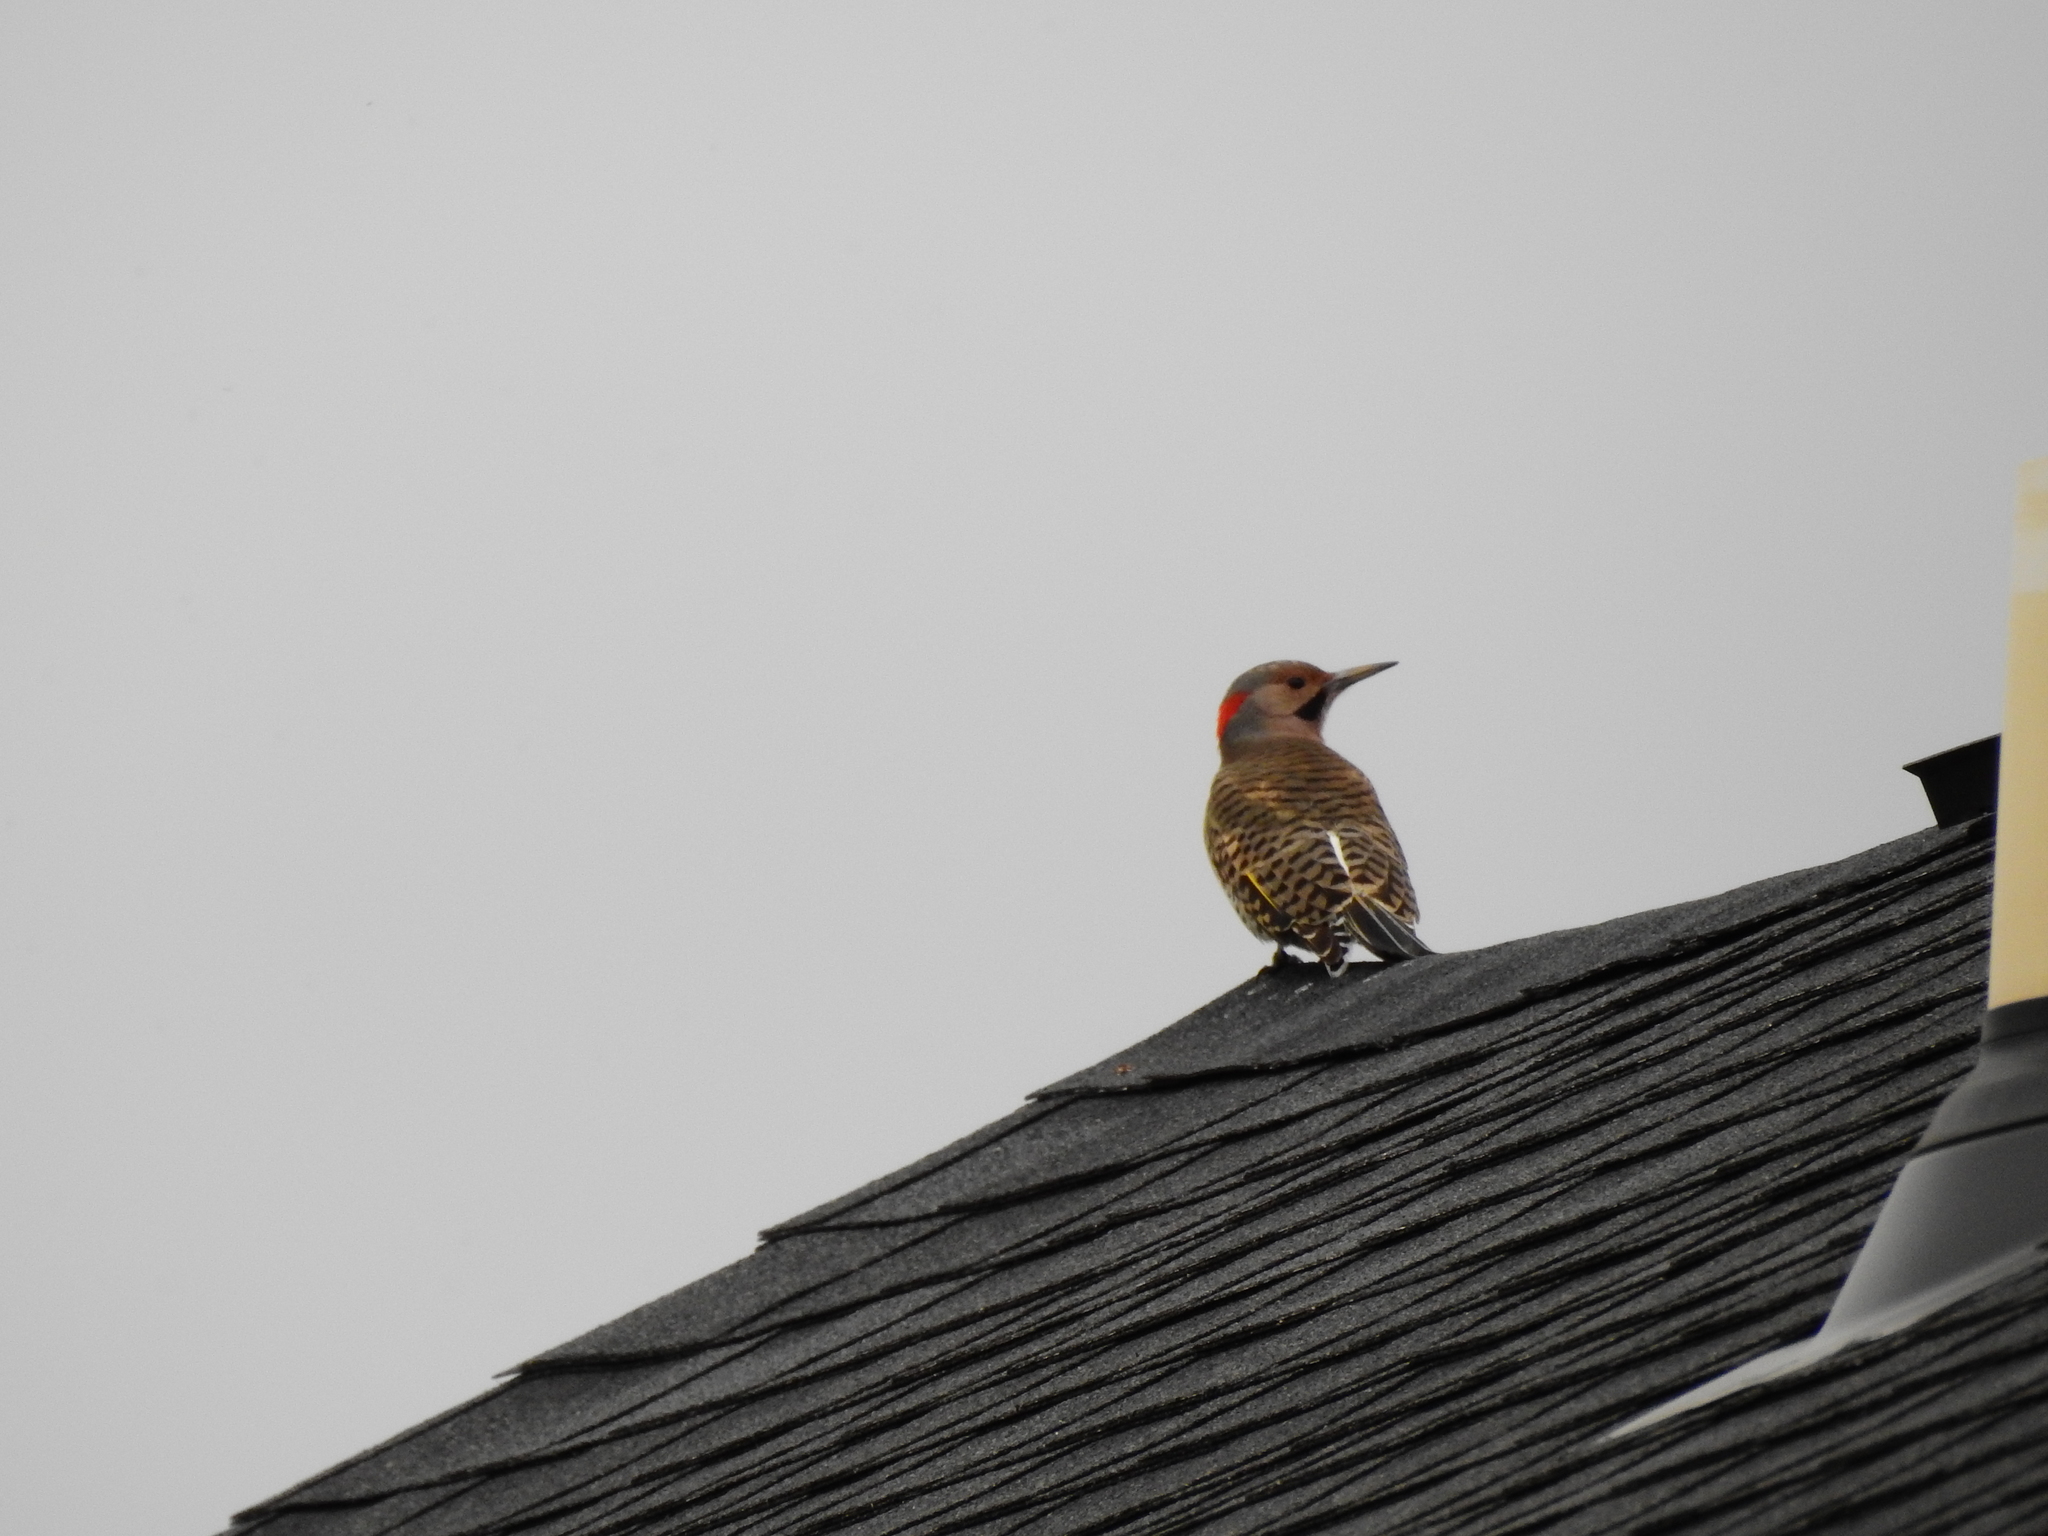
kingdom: Animalia
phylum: Chordata
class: Aves
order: Piciformes
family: Picidae
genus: Colaptes
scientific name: Colaptes auratus
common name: Northern flicker
